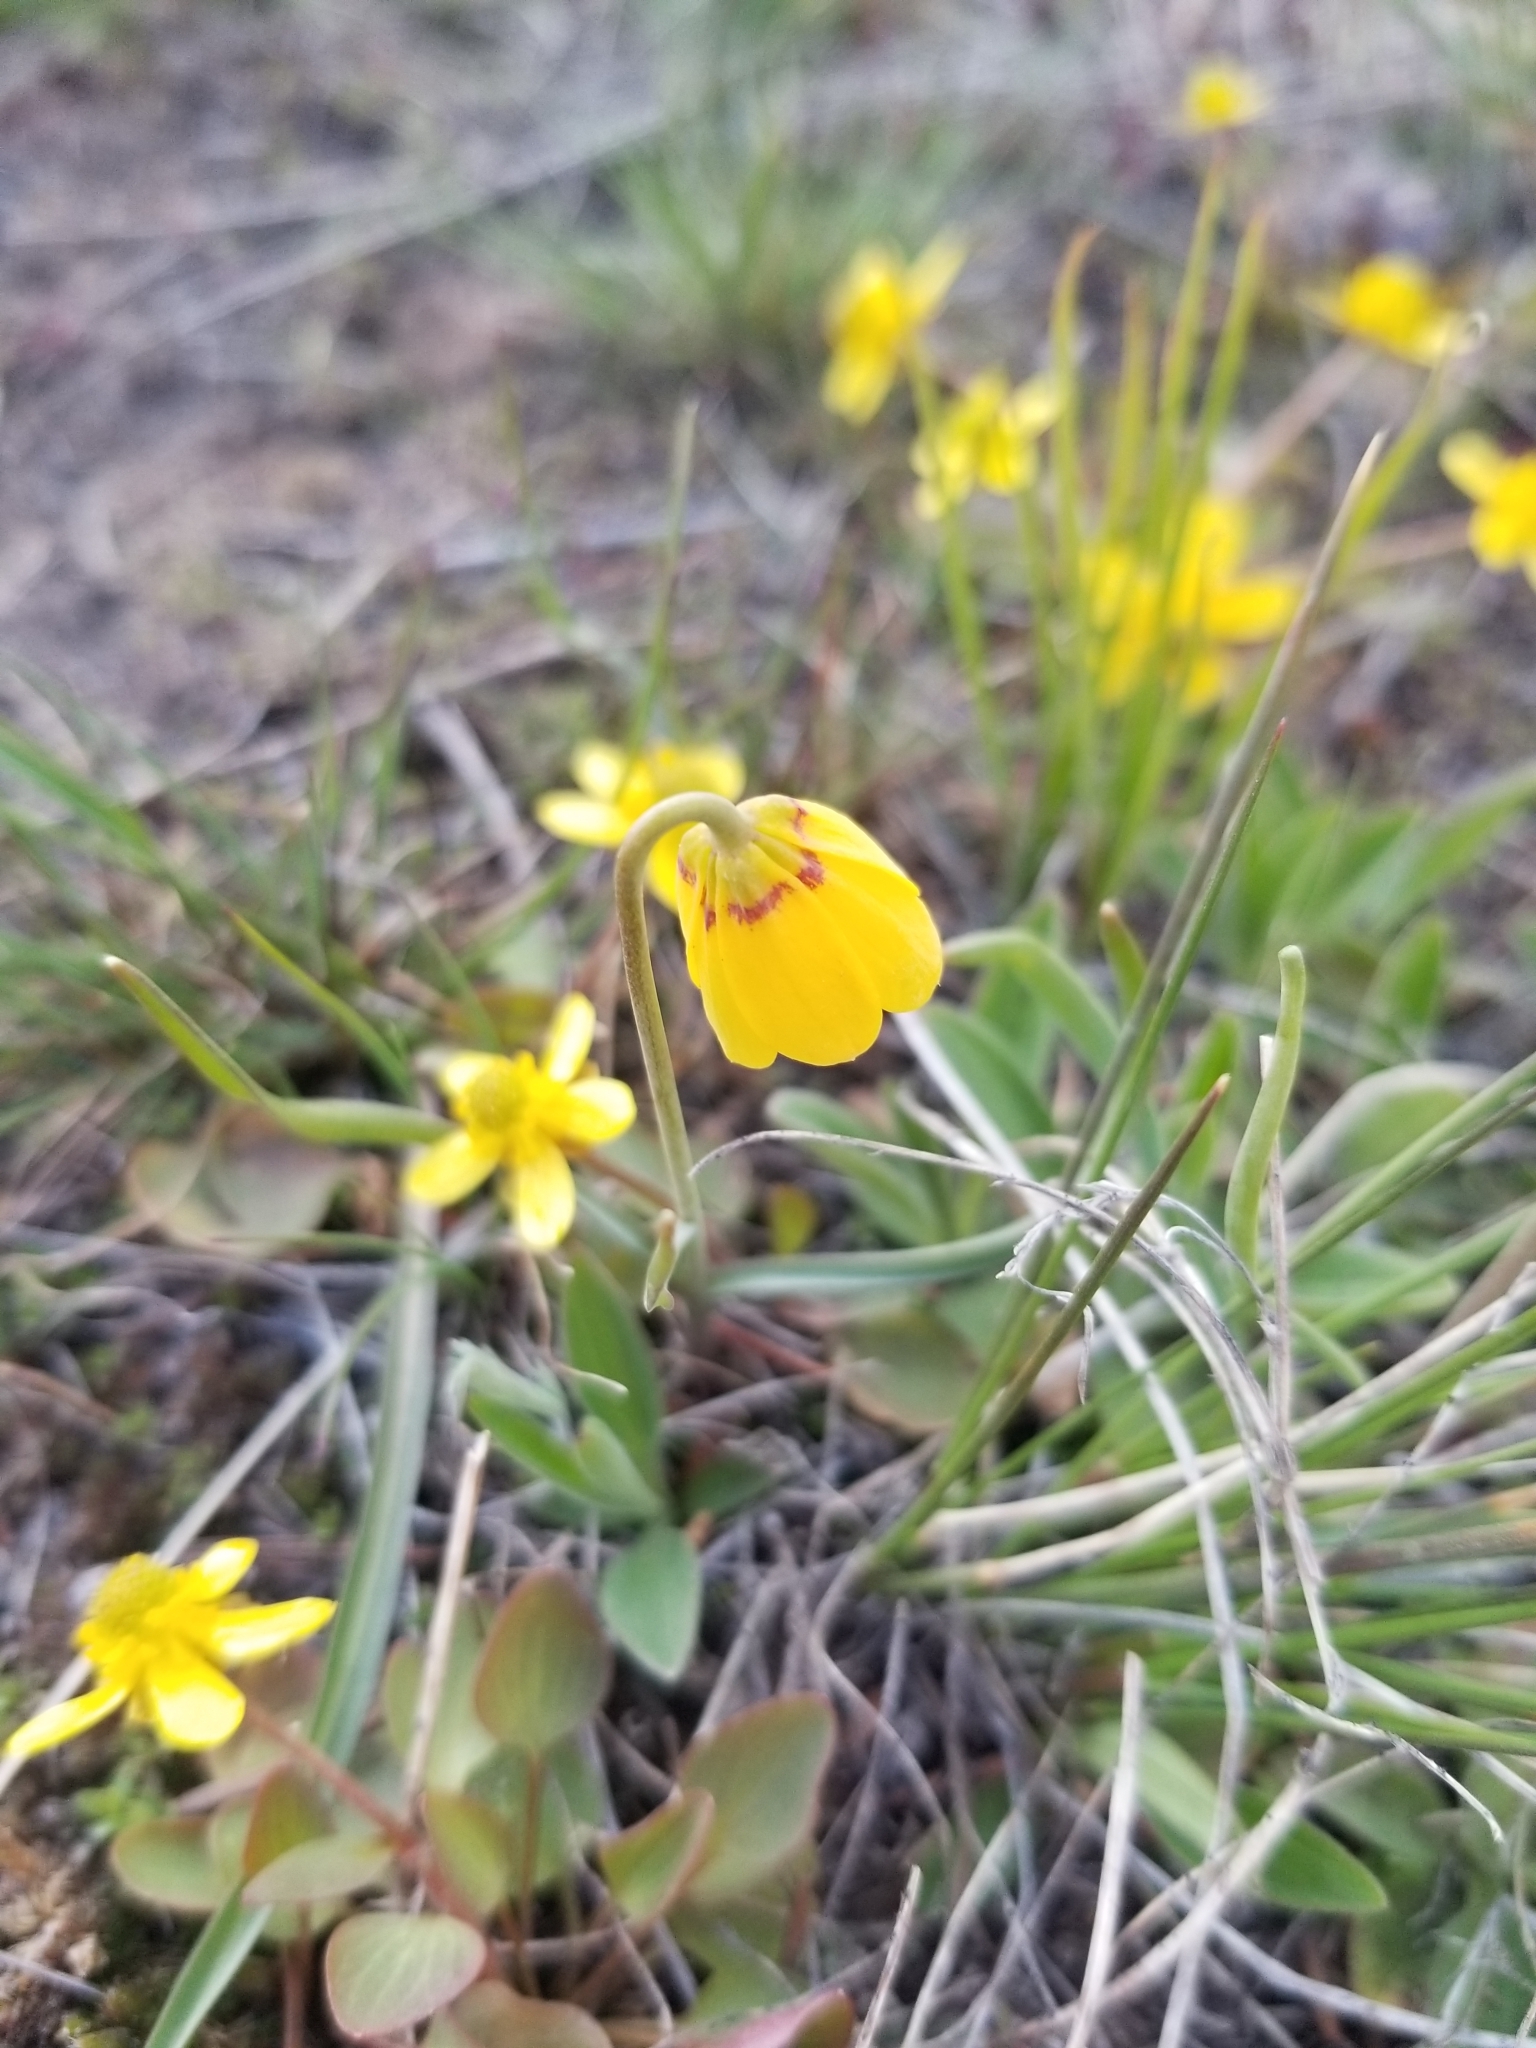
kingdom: Plantae
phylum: Tracheophyta
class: Liliopsida
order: Liliales
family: Liliaceae
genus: Fritillaria
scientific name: Fritillaria pudica
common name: Yellow fritillary
